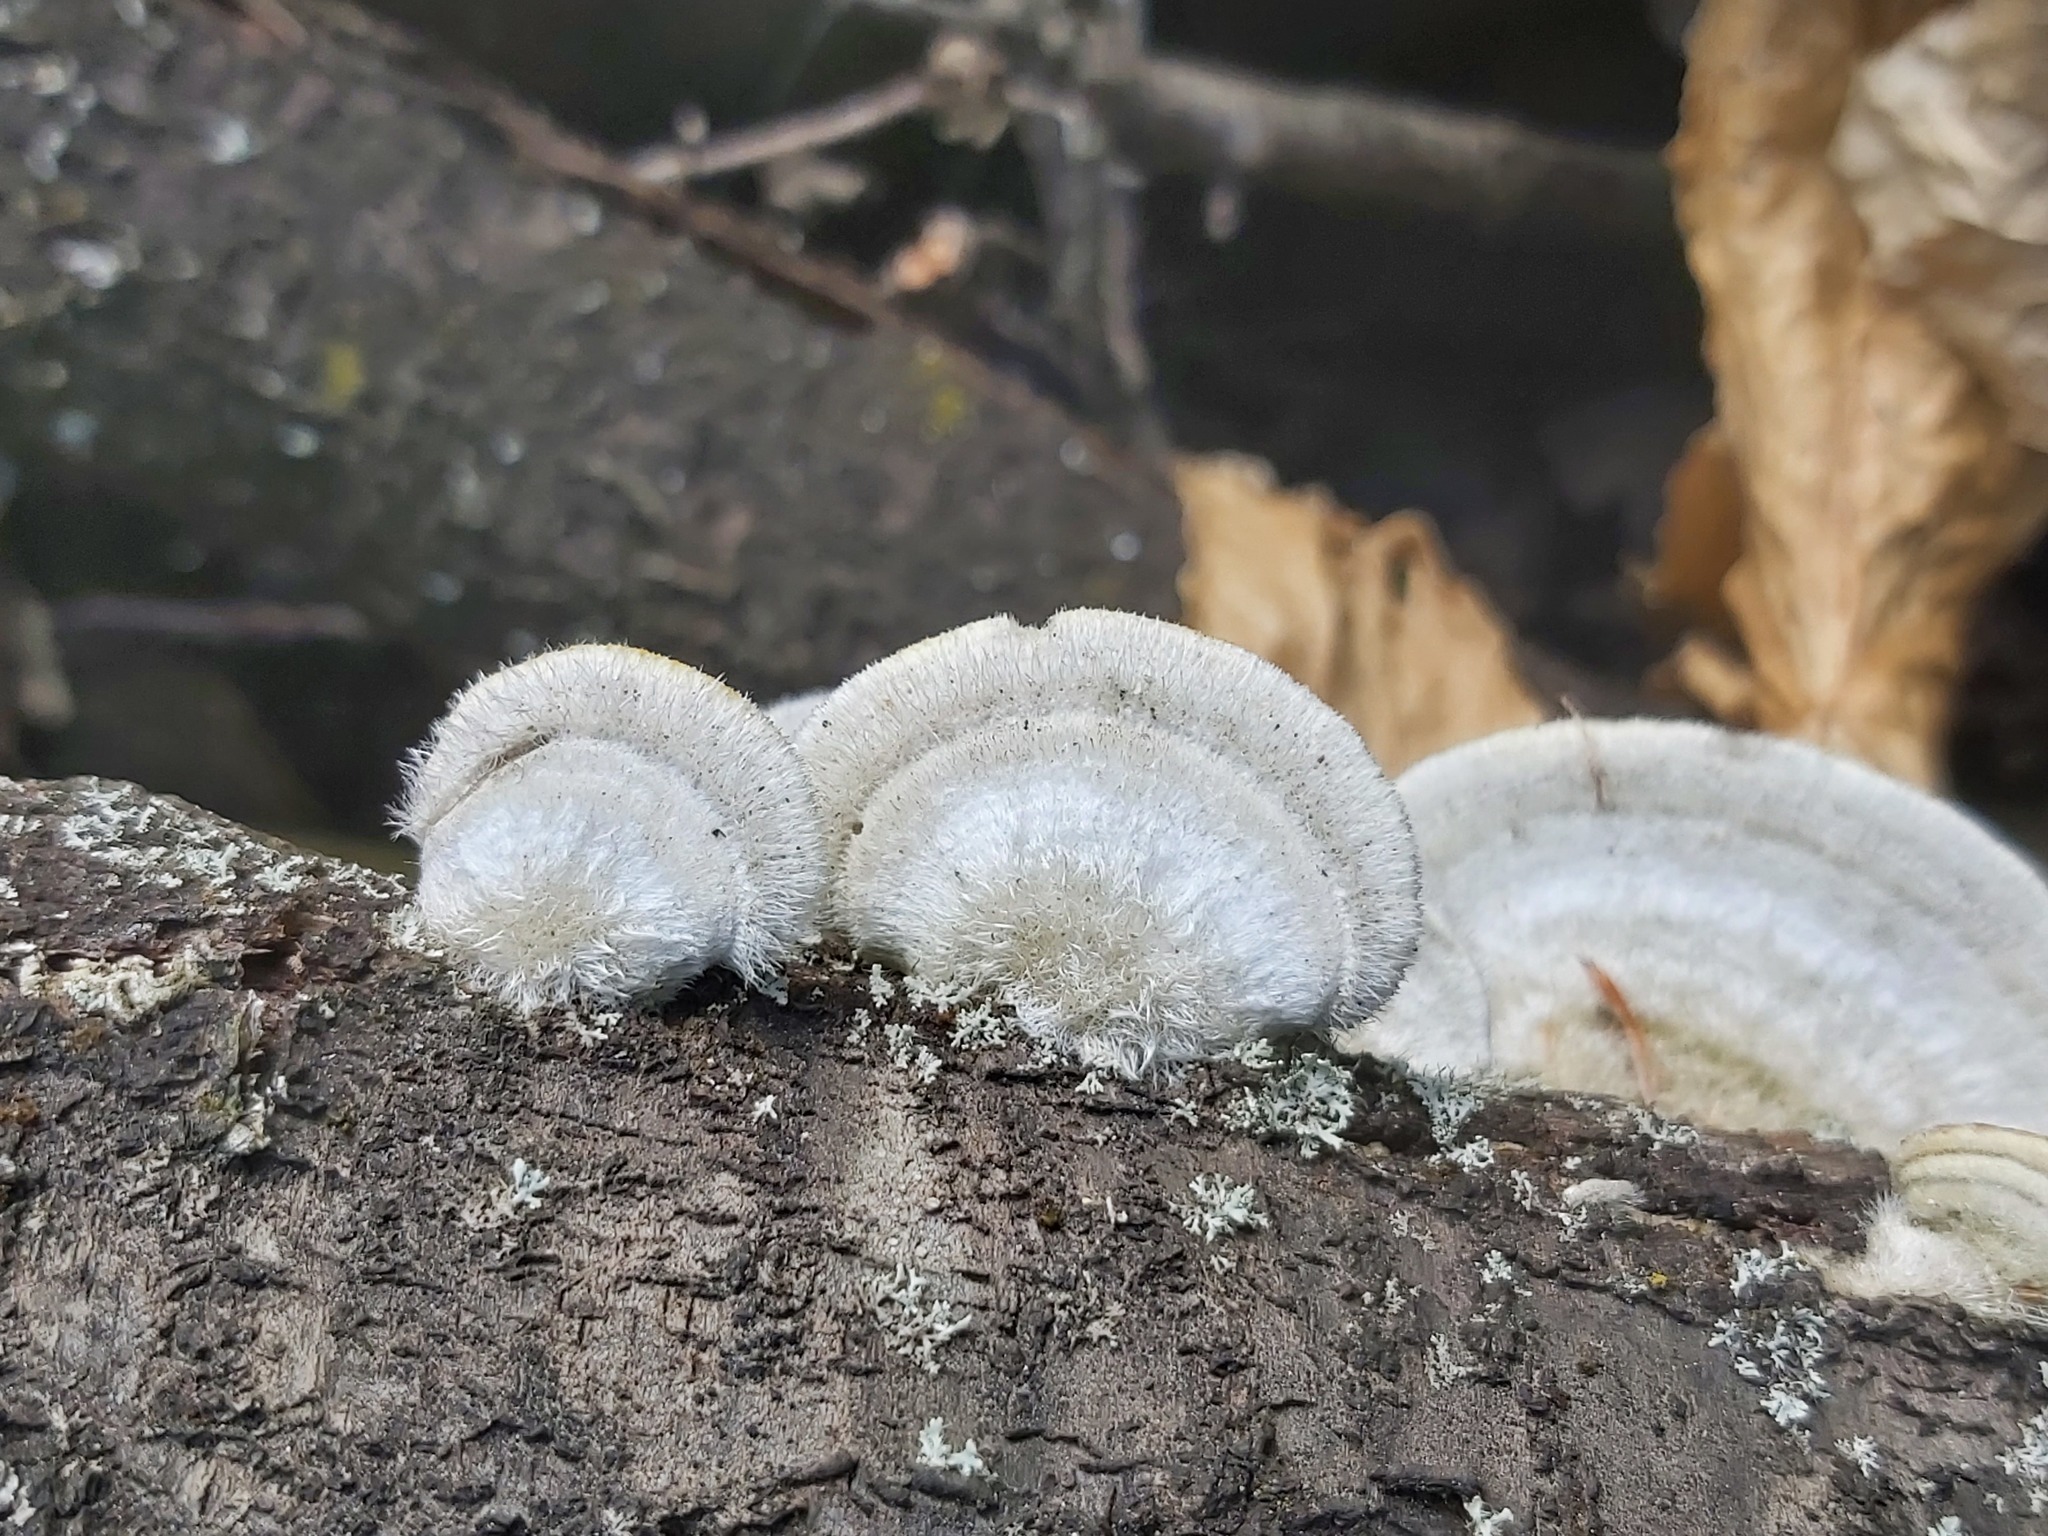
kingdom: Fungi
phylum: Basidiomycota
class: Agaricomycetes
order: Polyporales
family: Polyporaceae
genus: Trametes
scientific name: Trametes hirsuta
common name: Hairy bracket
